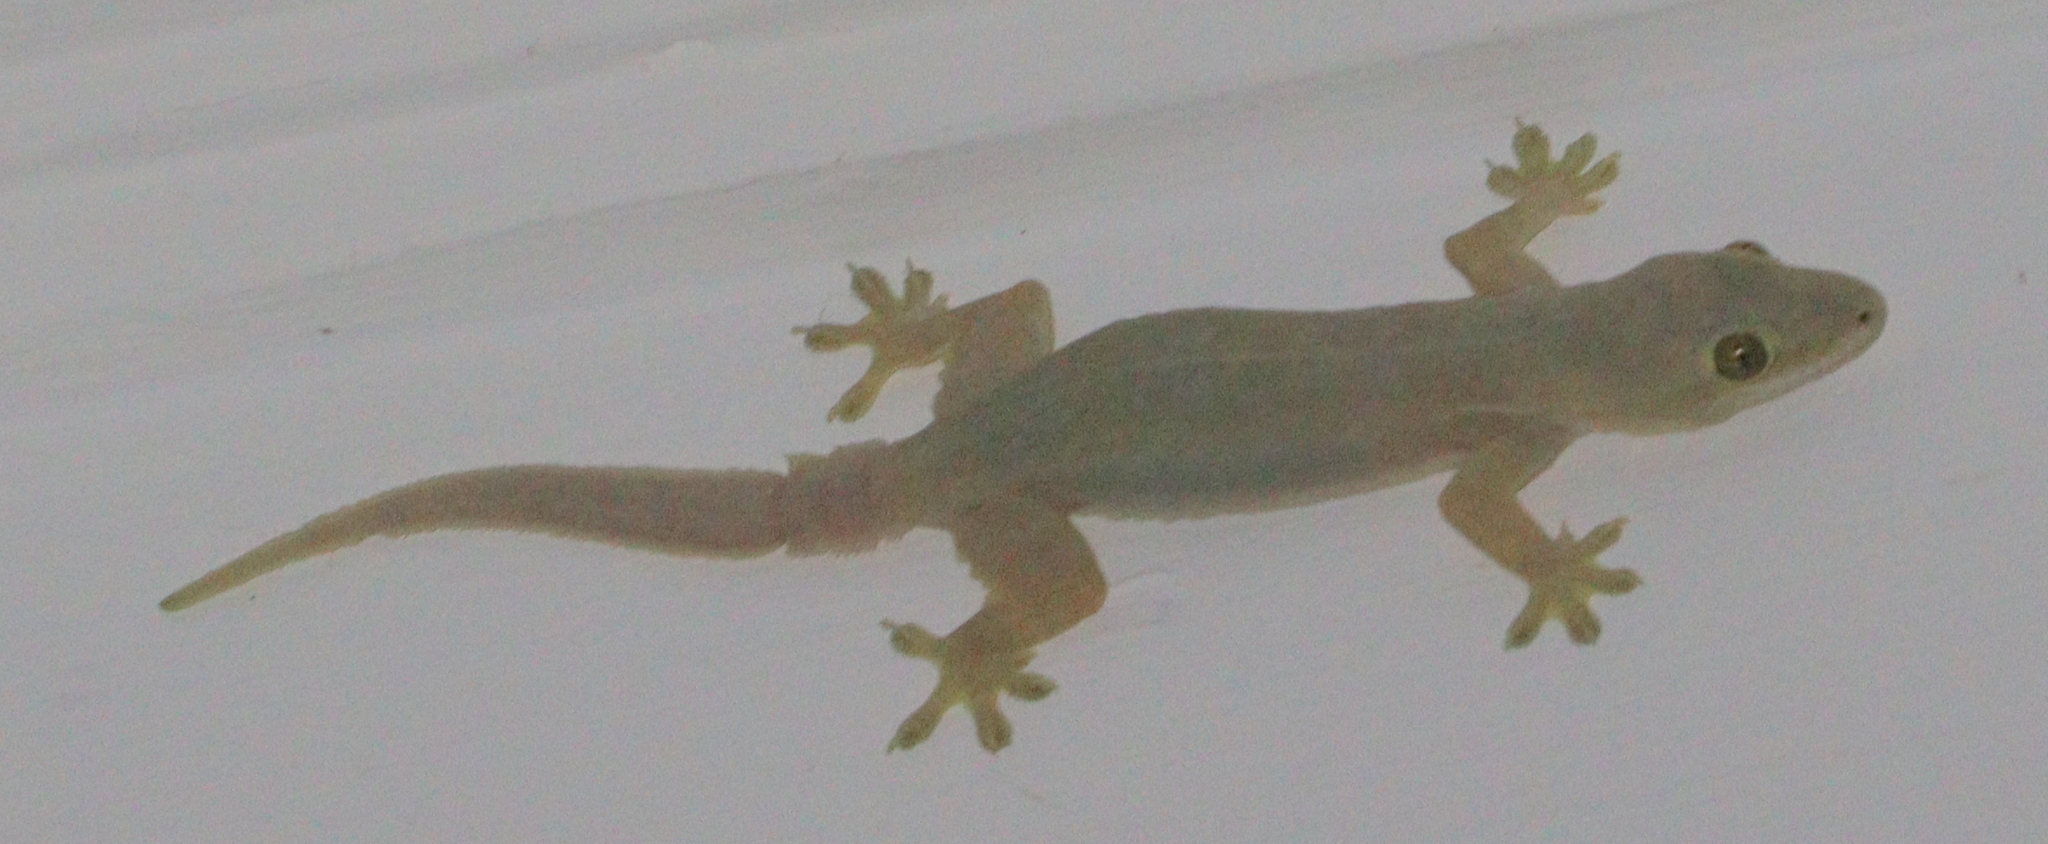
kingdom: Animalia
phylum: Chordata
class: Squamata
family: Gekkonidae
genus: Hemidactylus
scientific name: Hemidactylus platyurus
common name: Flat-tailed house gecko
